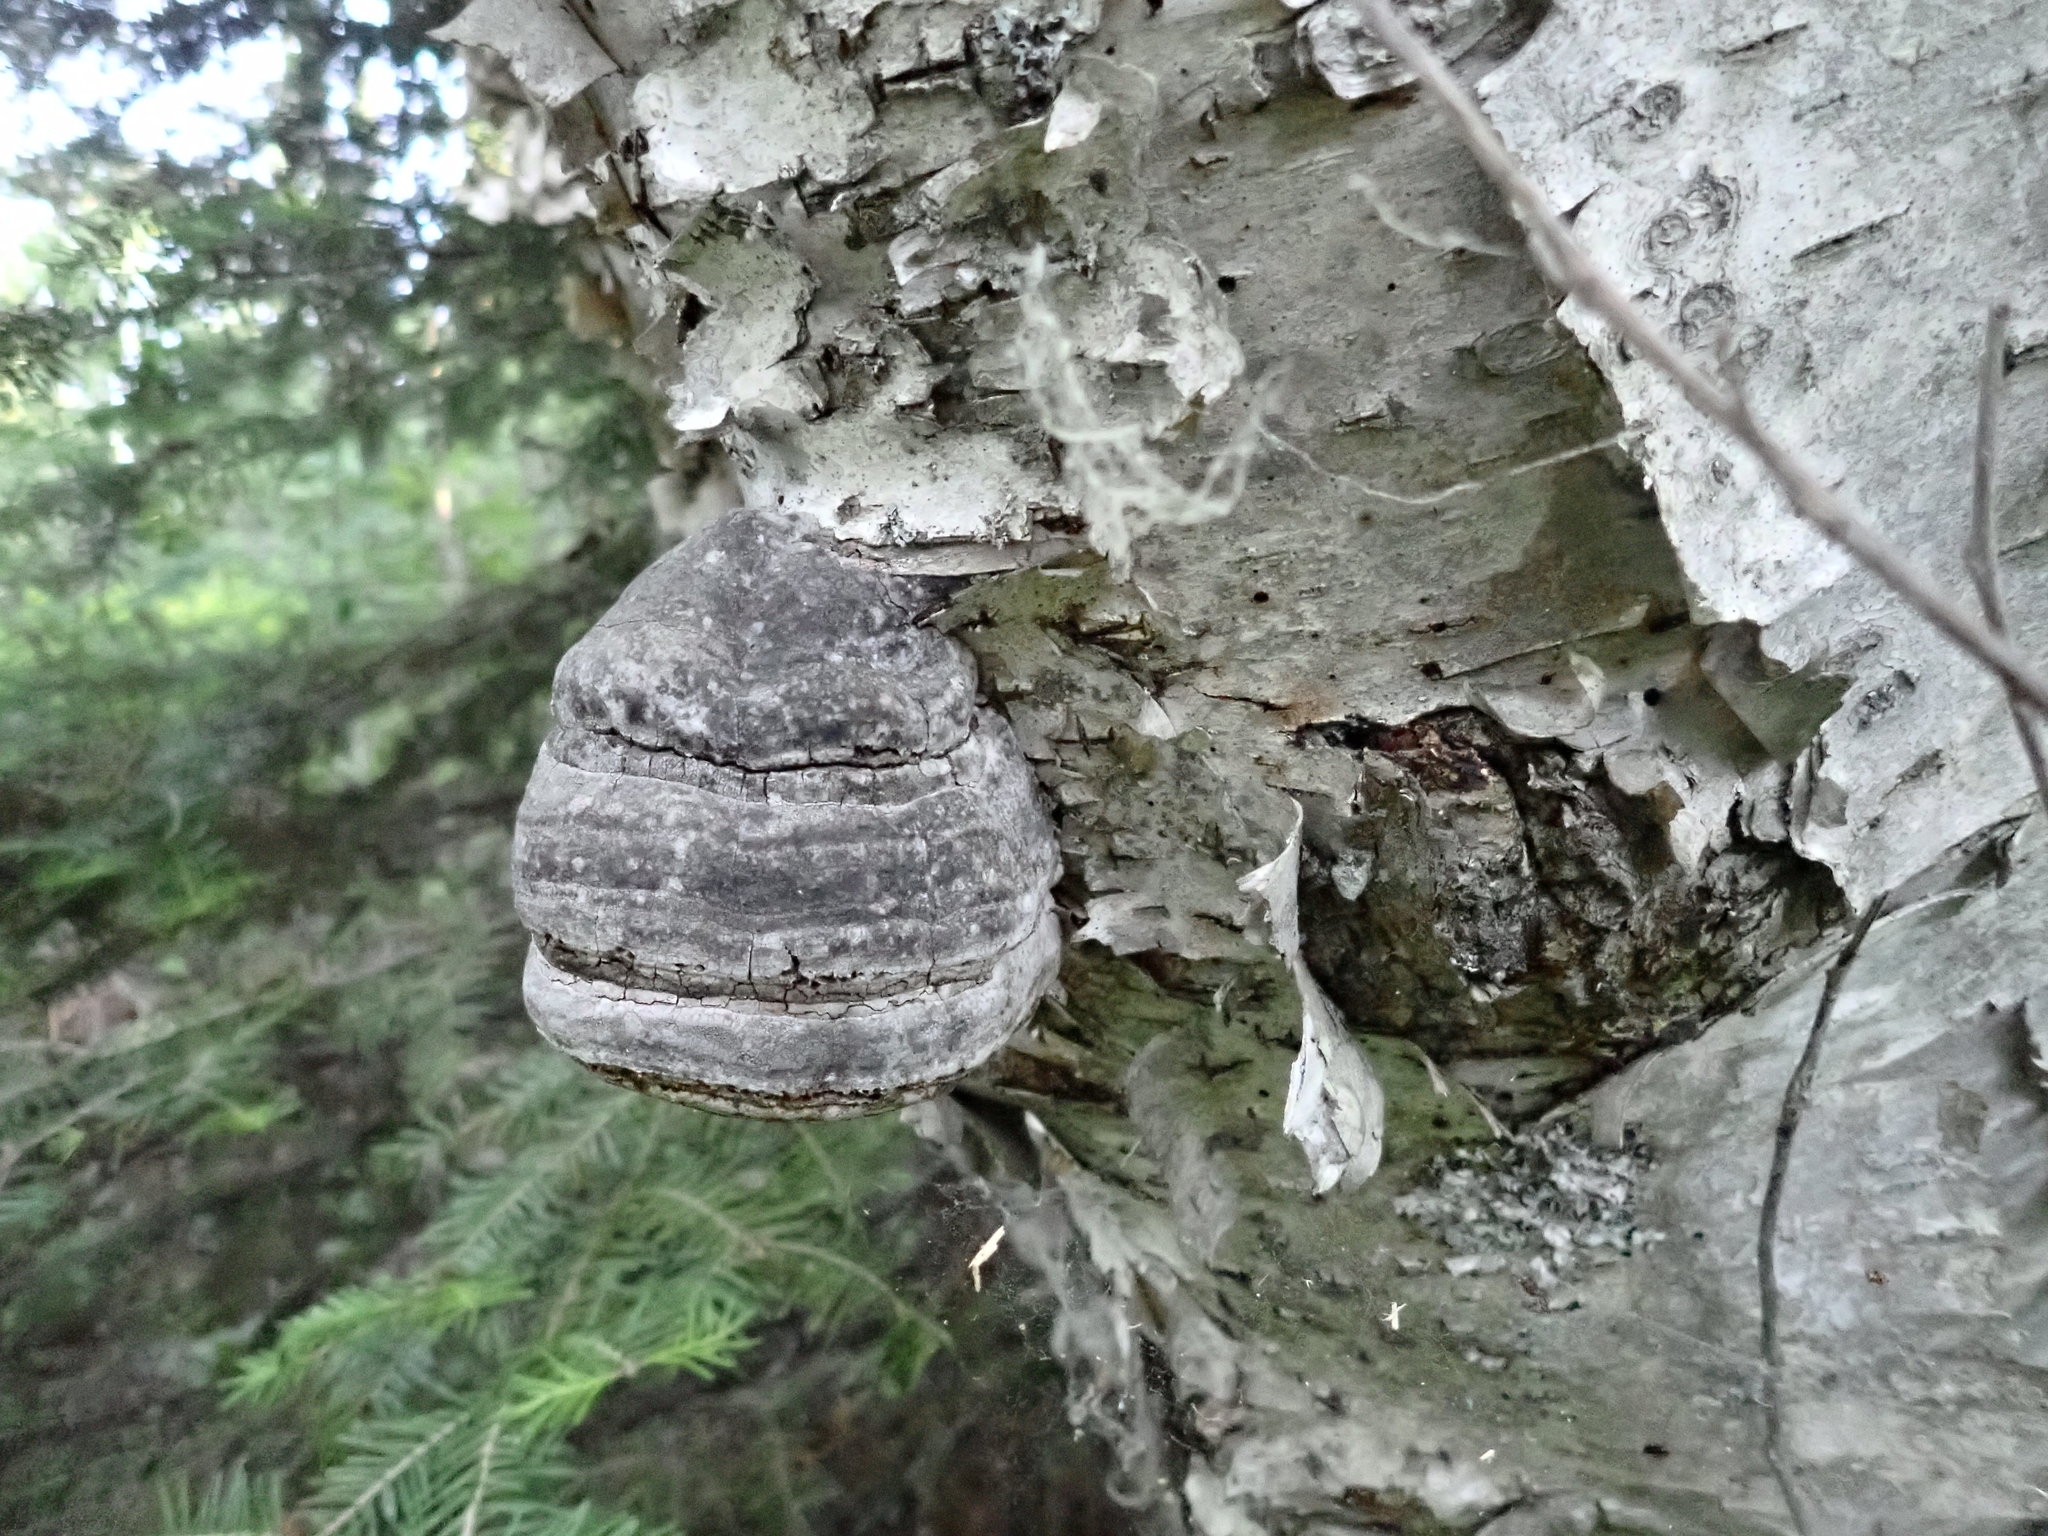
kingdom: Fungi
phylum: Basidiomycota
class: Agaricomycetes
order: Polyporales
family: Polyporaceae
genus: Fomes
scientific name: Fomes fomentarius
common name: Hoof fungus
